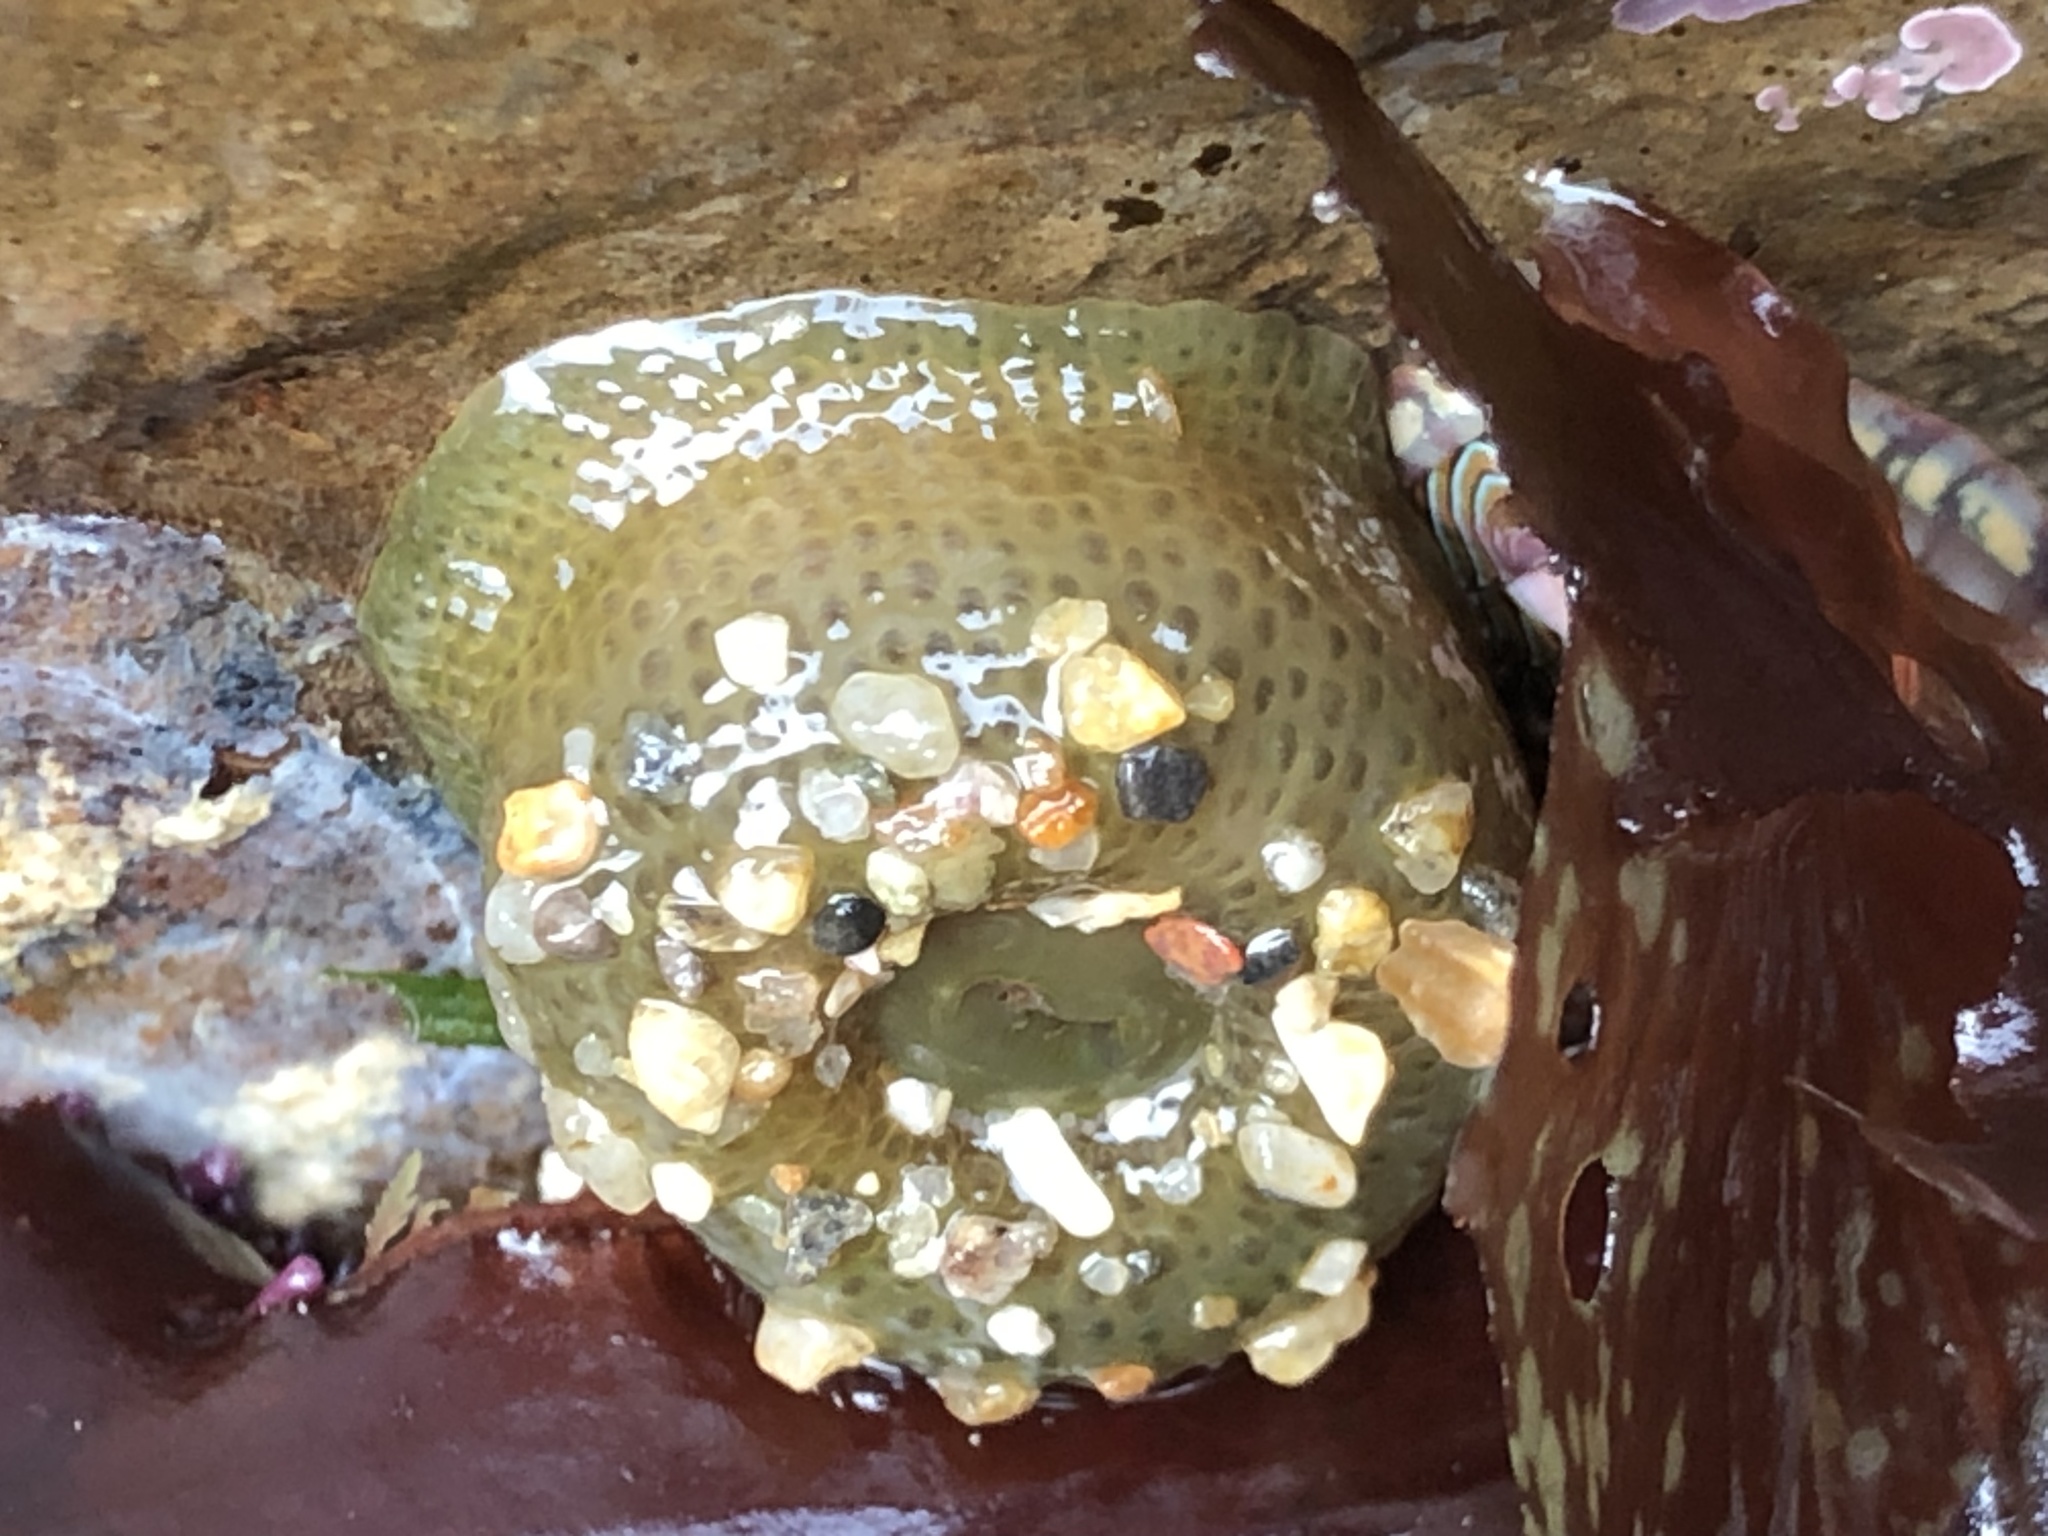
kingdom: Animalia
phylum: Cnidaria
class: Anthozoa
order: Actiniaria
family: Actiniidae
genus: Anthopleura
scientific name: Anthopleura elegantissima
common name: Clonal anemone
